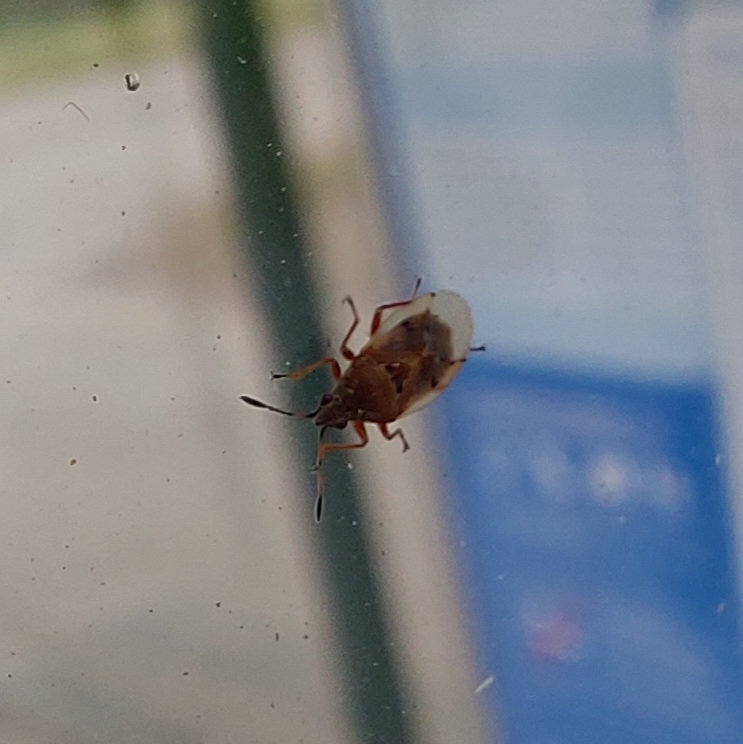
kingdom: Animalia
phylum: Arthropoda
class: Insecta
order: Hemiptera
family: Lygaeidae
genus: Kleidocerys
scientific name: Kleidocerys resedae
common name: Birch catkin bug
